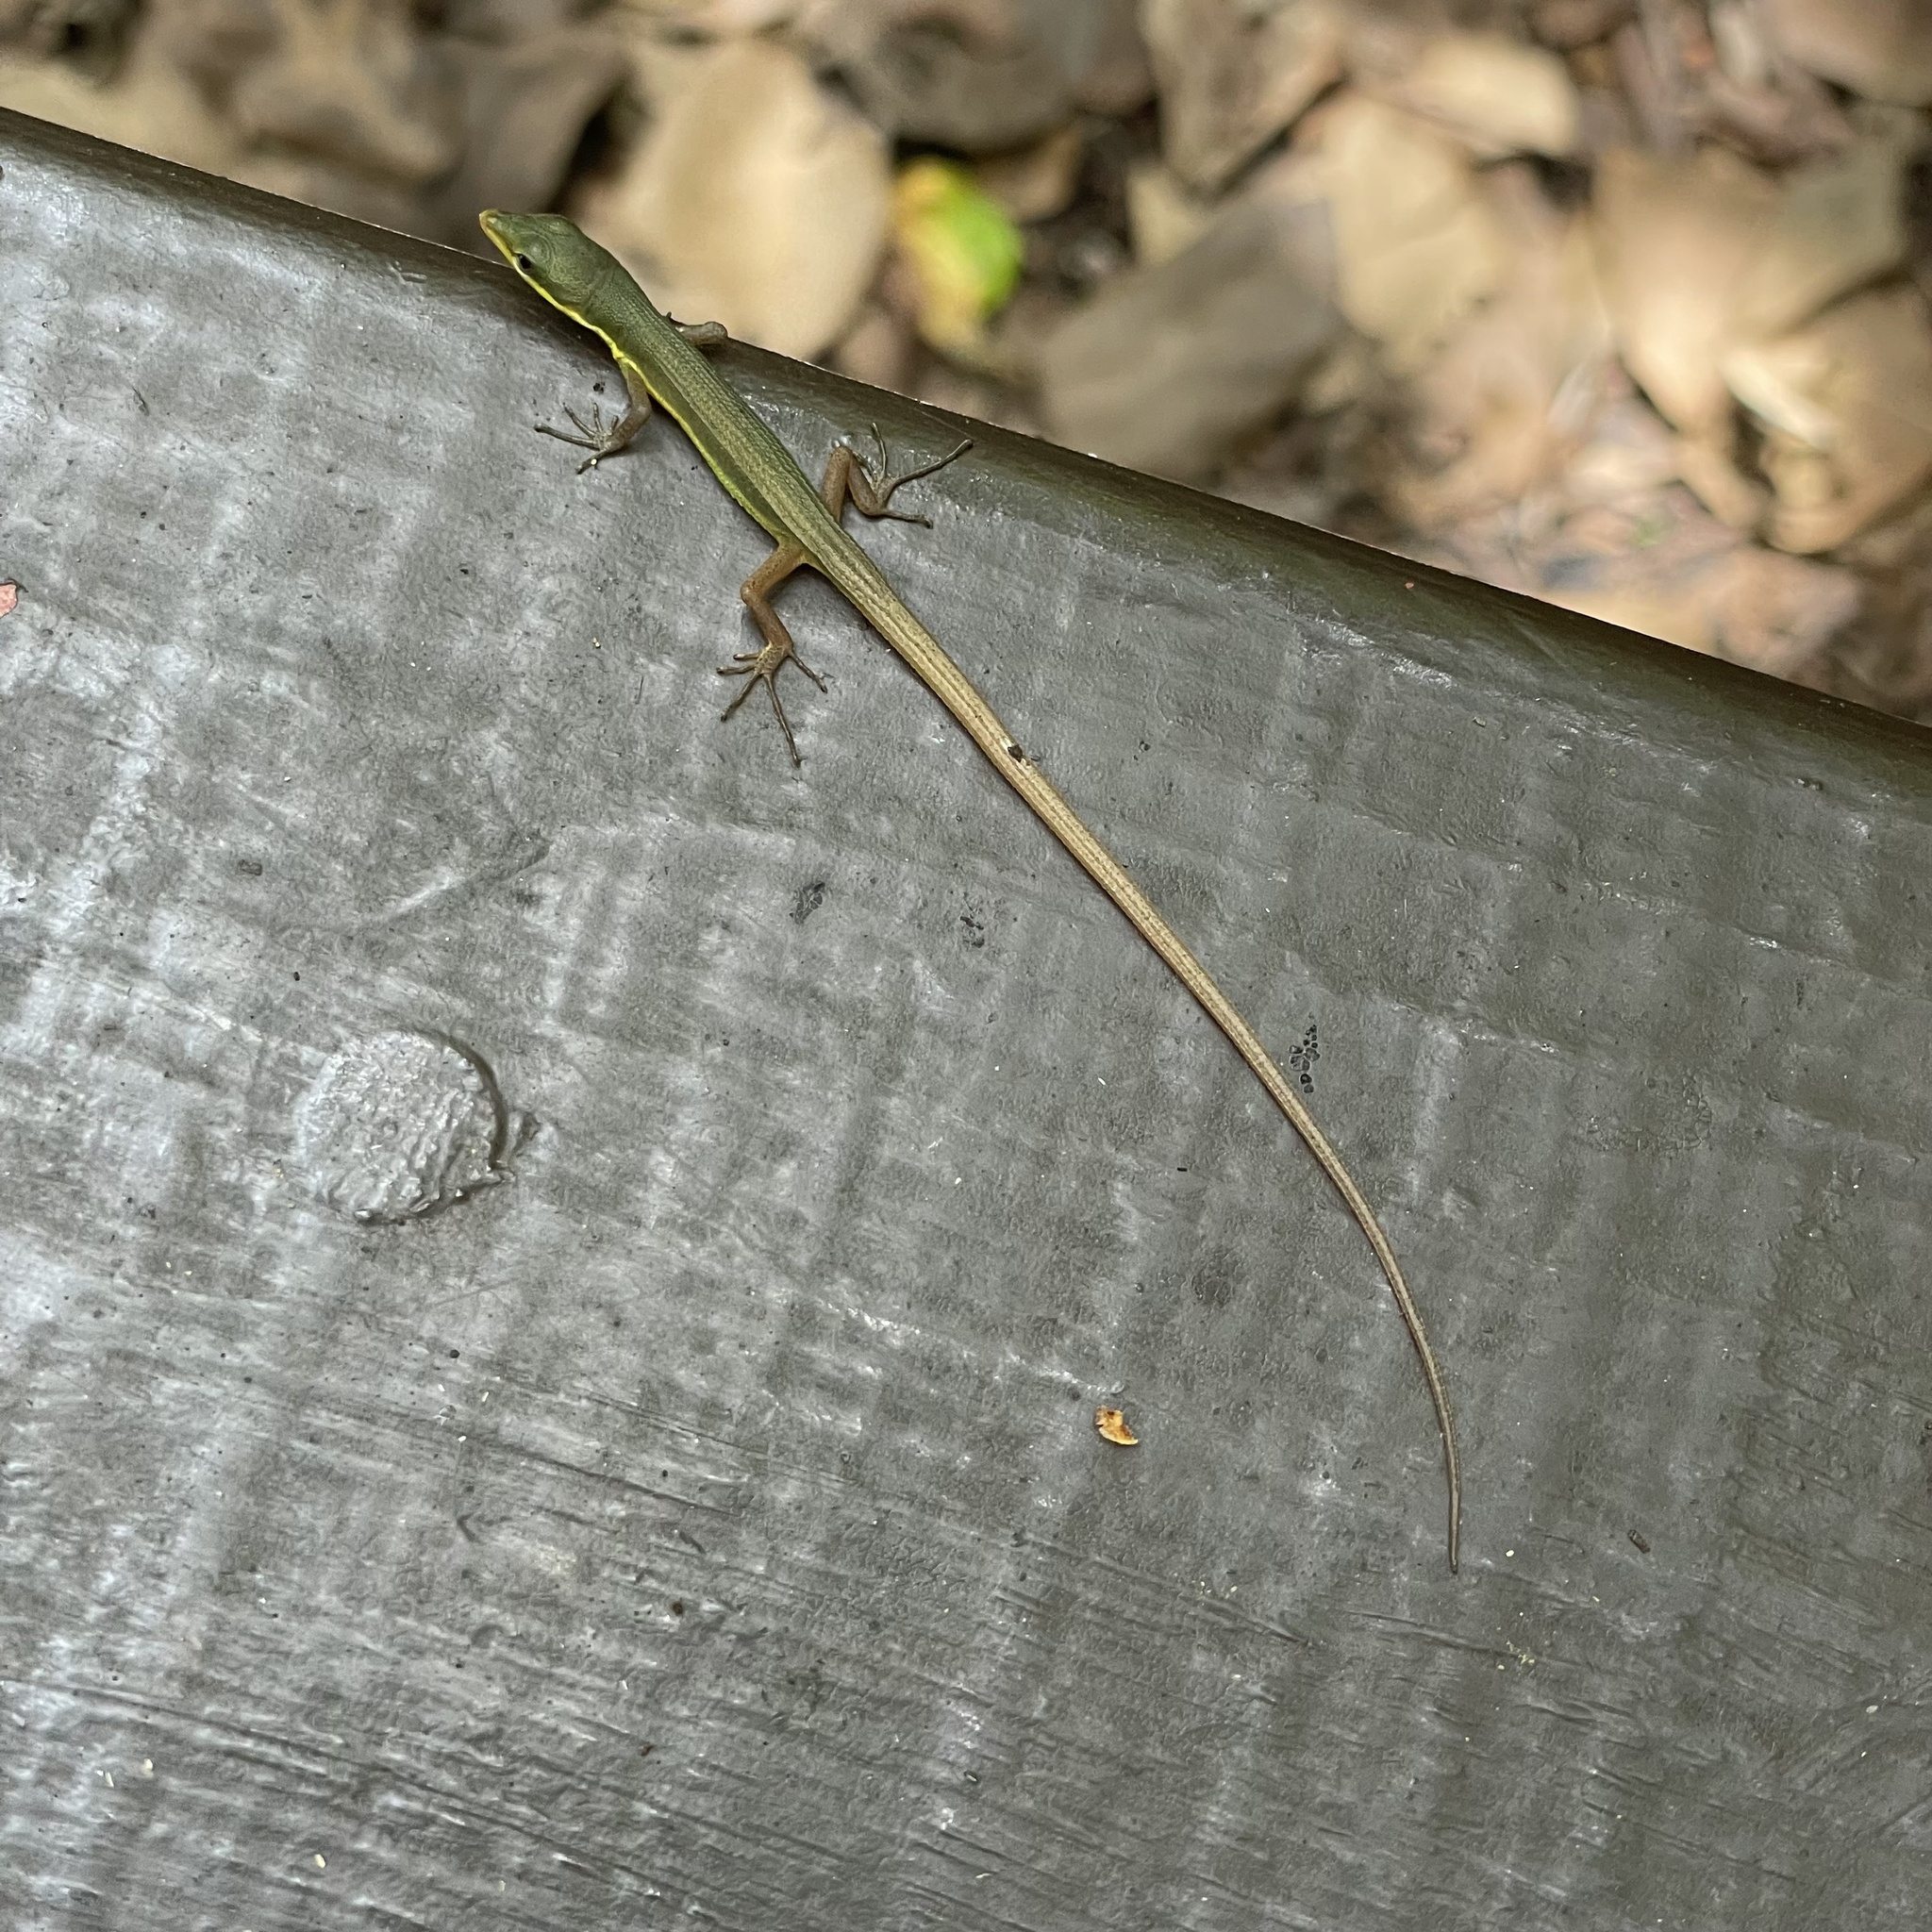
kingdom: Animalia
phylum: Chordata
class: Squamata
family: Lacertidae
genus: Takydromus
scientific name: Takydromus smaragdinus
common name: Green grass lizard
